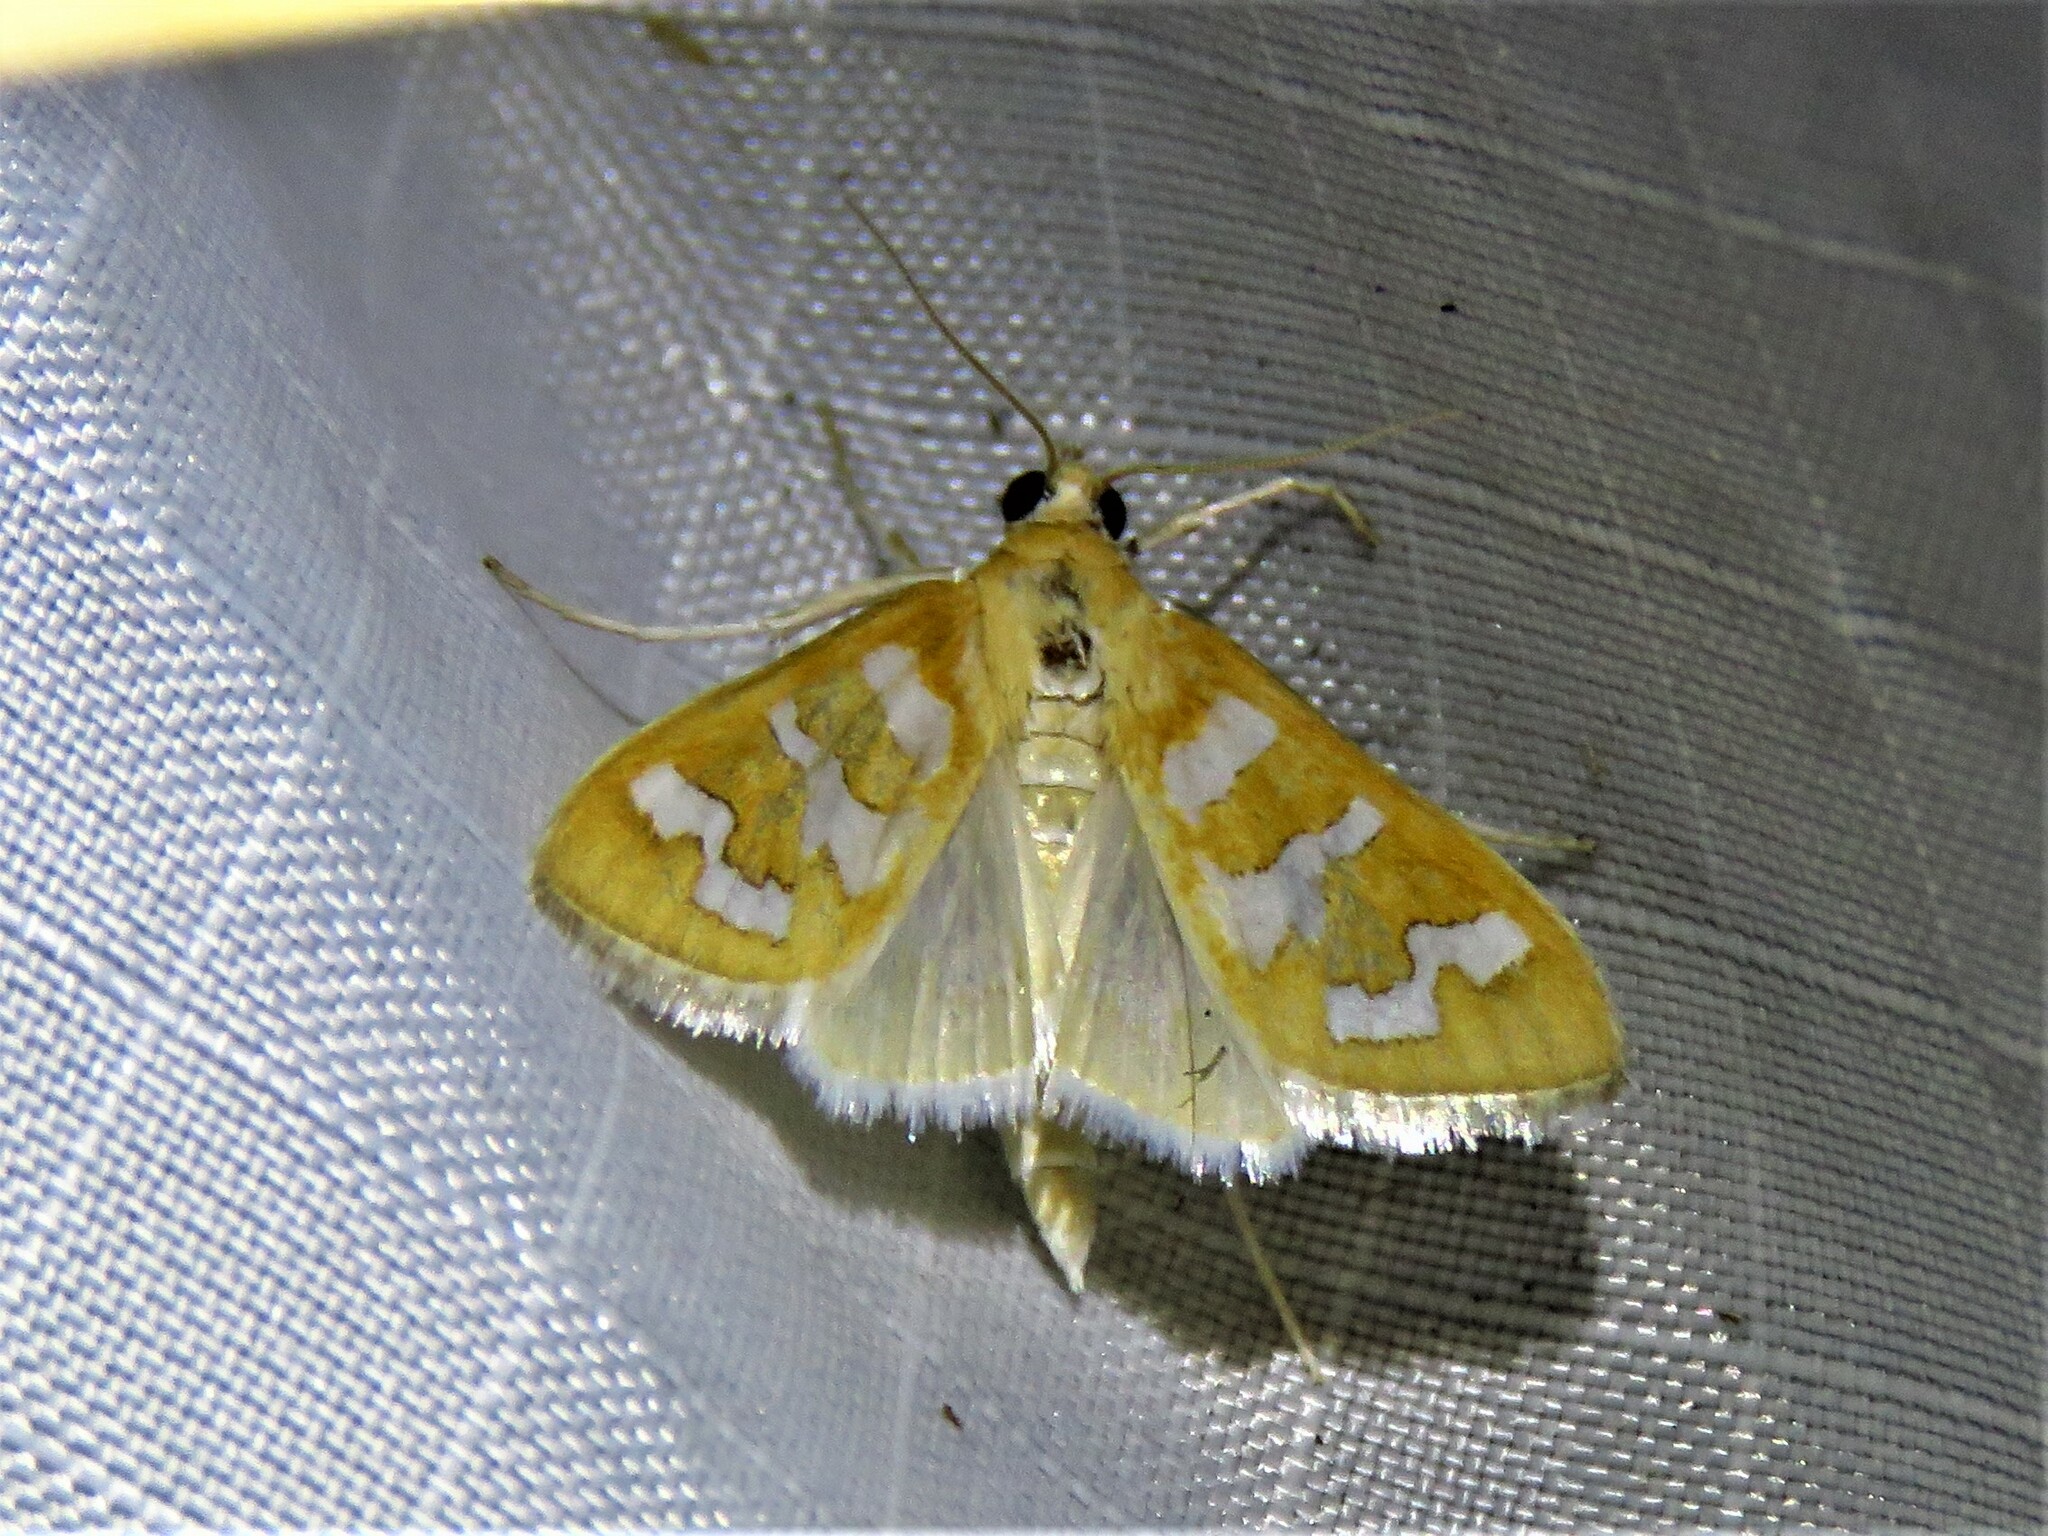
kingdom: Animalia
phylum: Arthropoda
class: Insecta
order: Lepidoptera
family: Crambidae
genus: Diastictis
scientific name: Diastictis fracturalis
